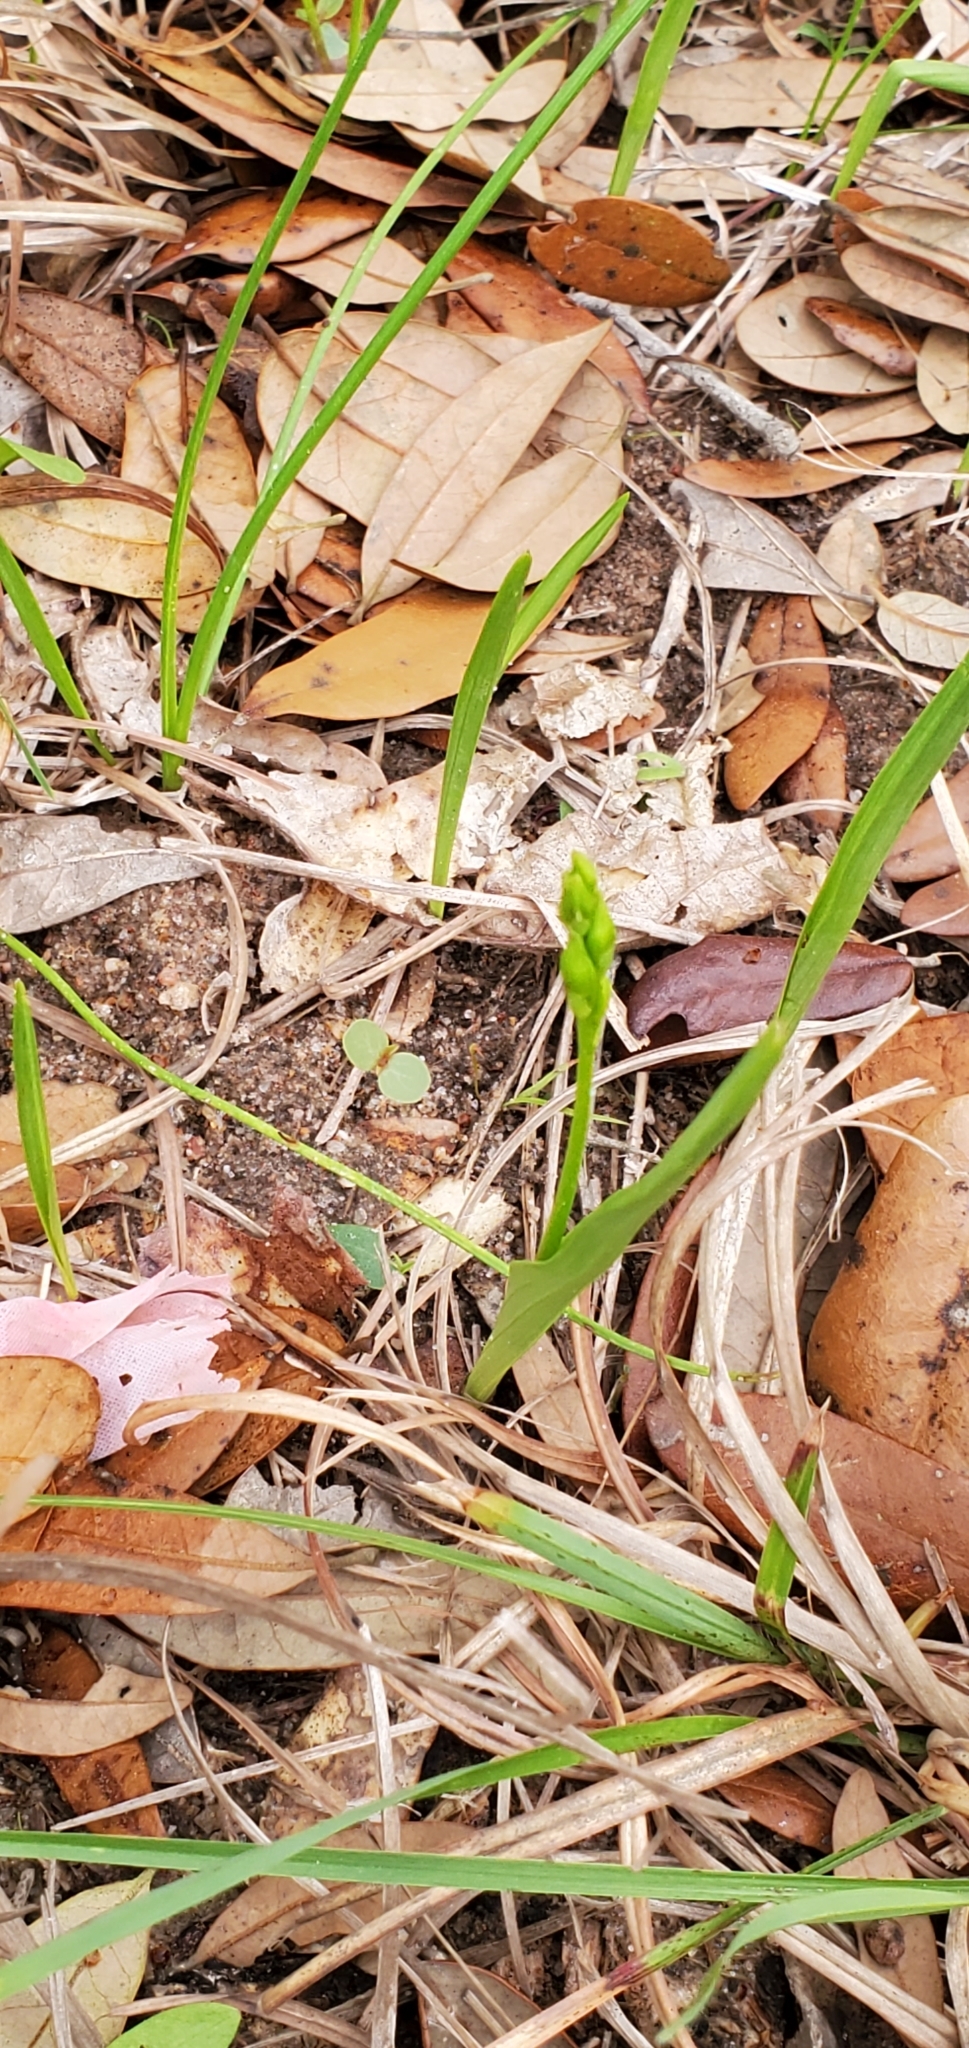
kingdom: Plantae
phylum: Tracheophyta
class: Liliopsida
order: Asparagales
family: Orchidaceae
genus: Calopogon
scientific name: Calopogon oklahomensis
